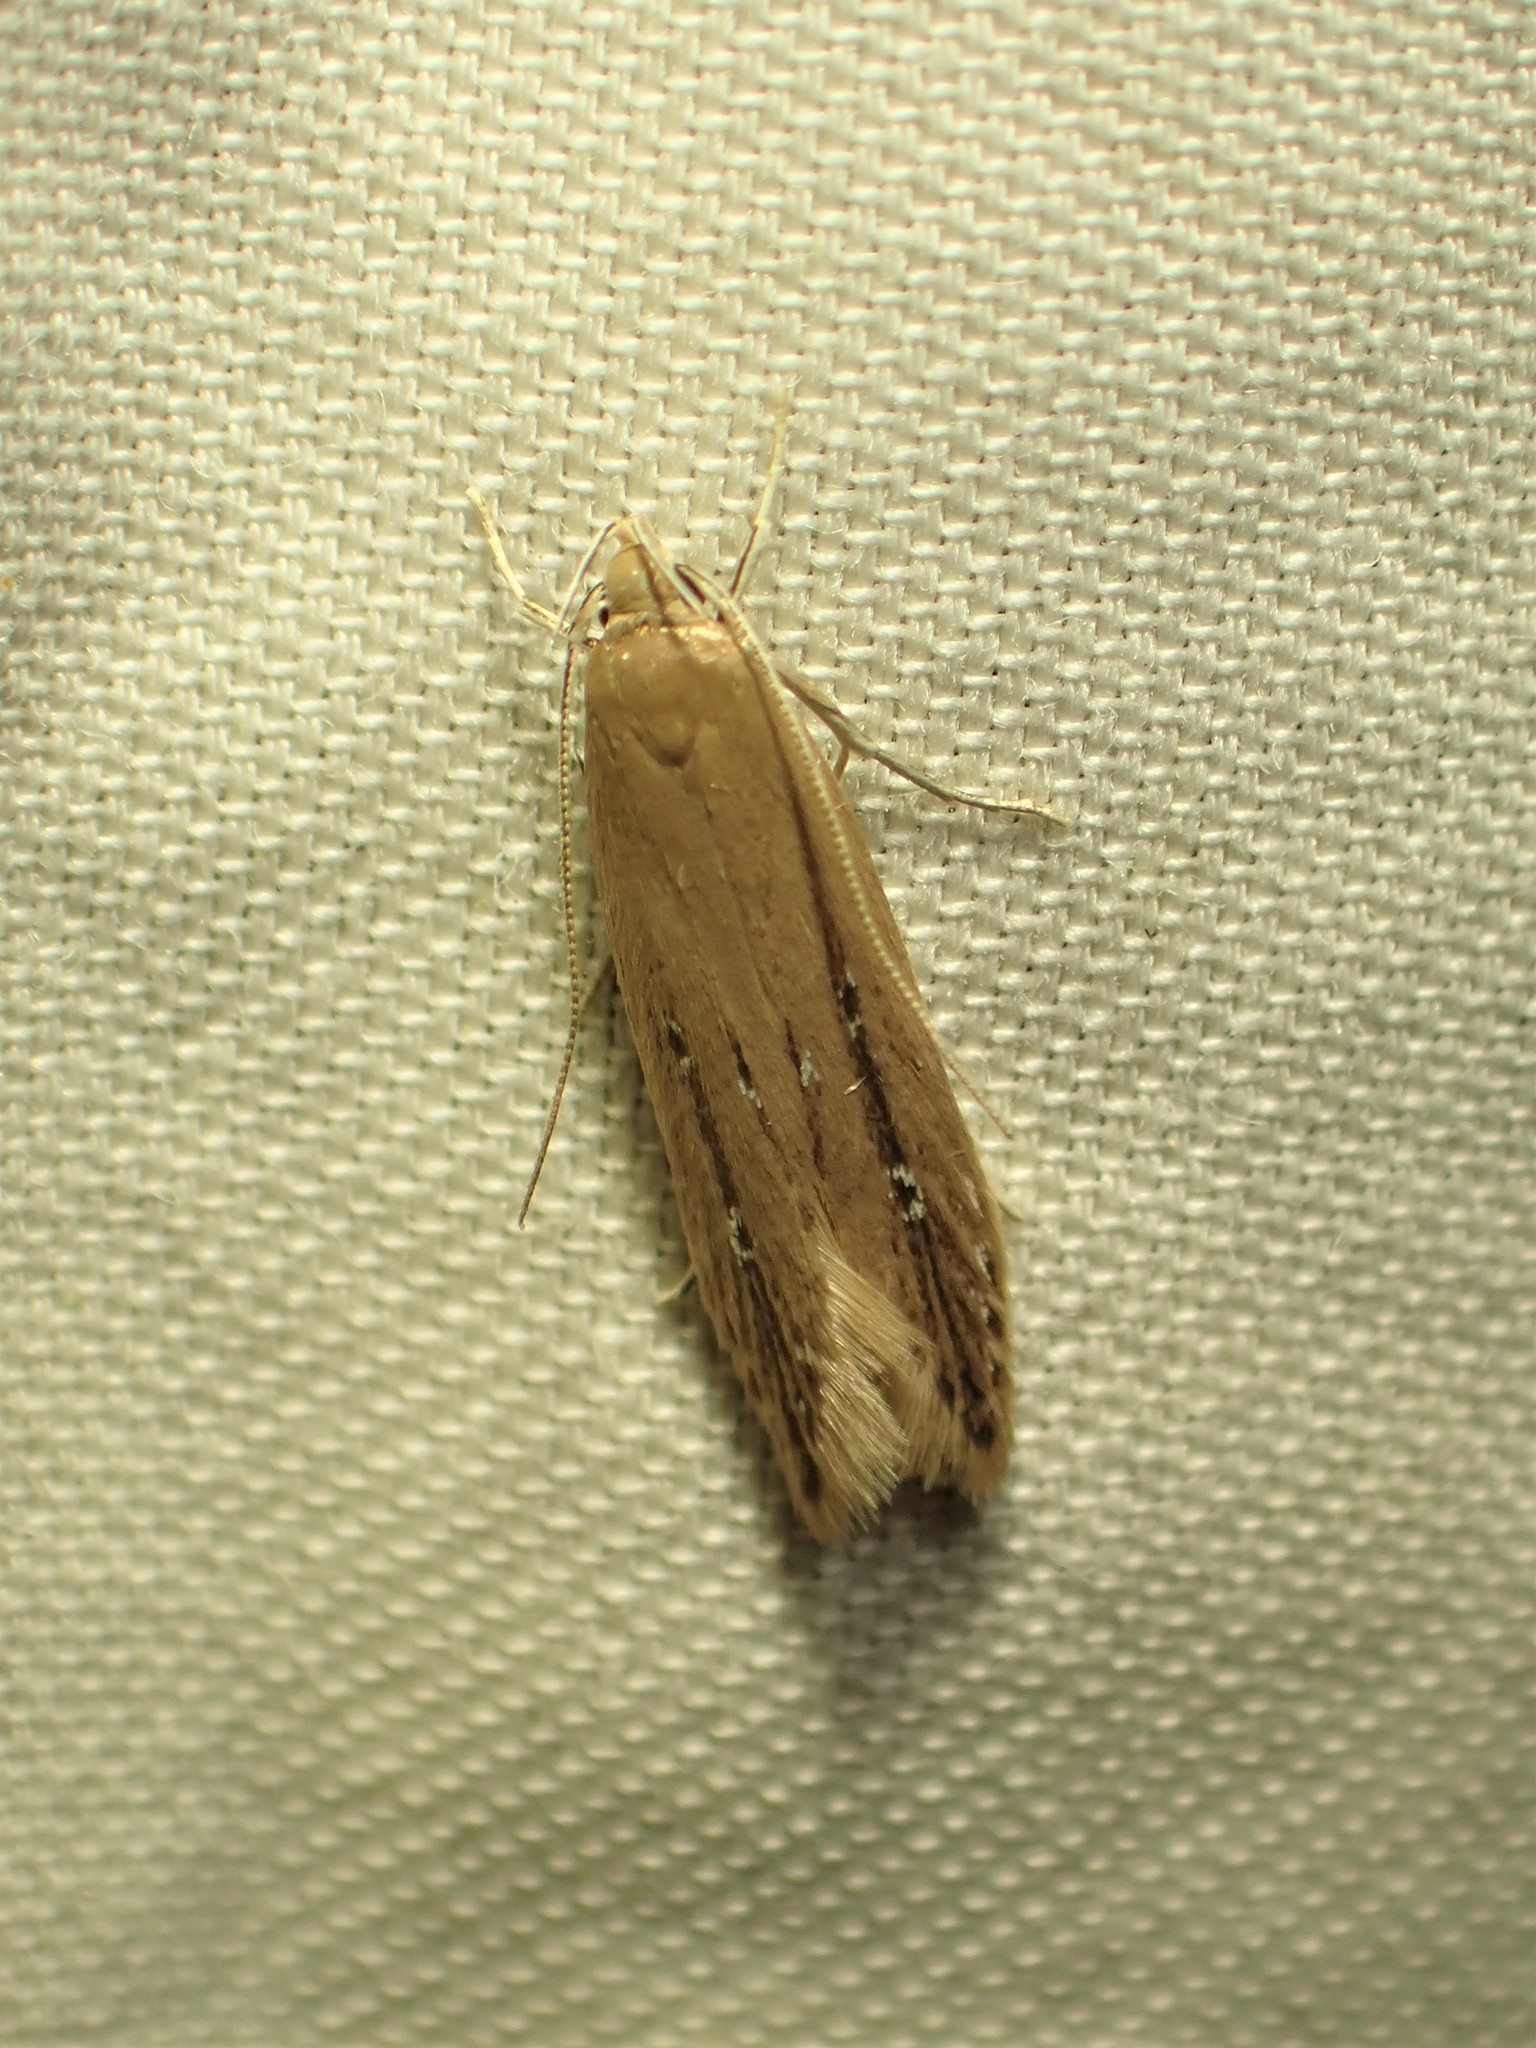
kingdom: Animalia
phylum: Arthropoda
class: Insecta
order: Lepidoptera
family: Cosmopterigidae
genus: Limnaecia
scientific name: Limnaecia phragmitella
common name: Bulrush cosmet
